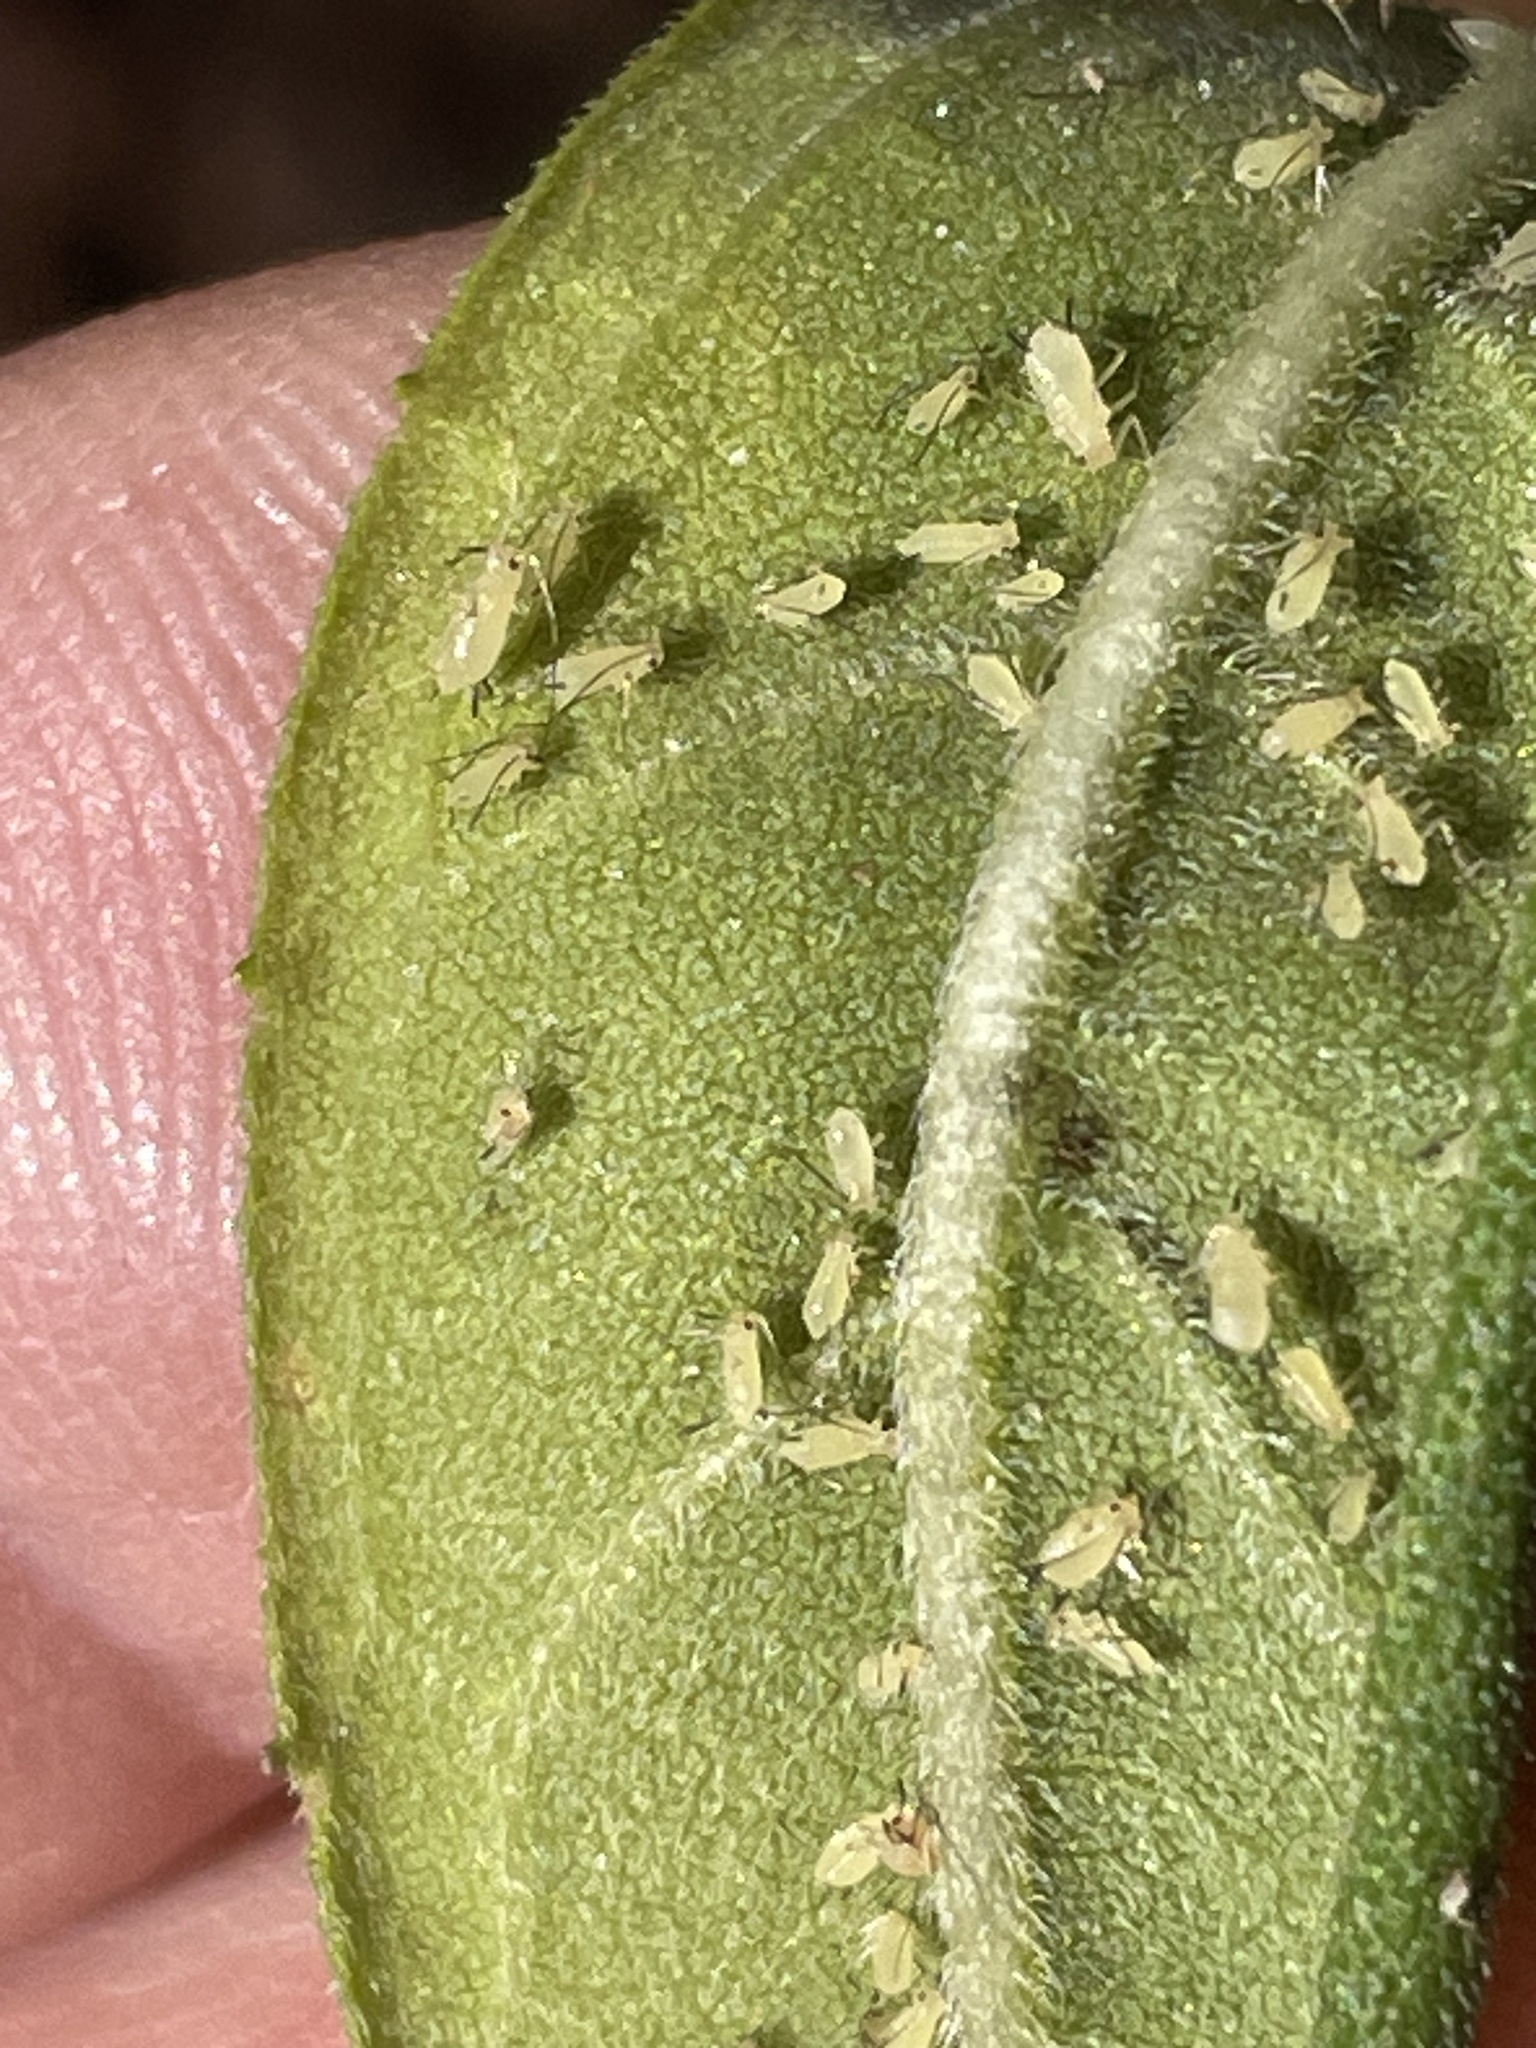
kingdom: Plantae
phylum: Tracheophyta
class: Magnoliopsida
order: Asterales
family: Asteraceae
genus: Helianthus
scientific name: Helianthus schweinitzii
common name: Schweinitz's sunflower
